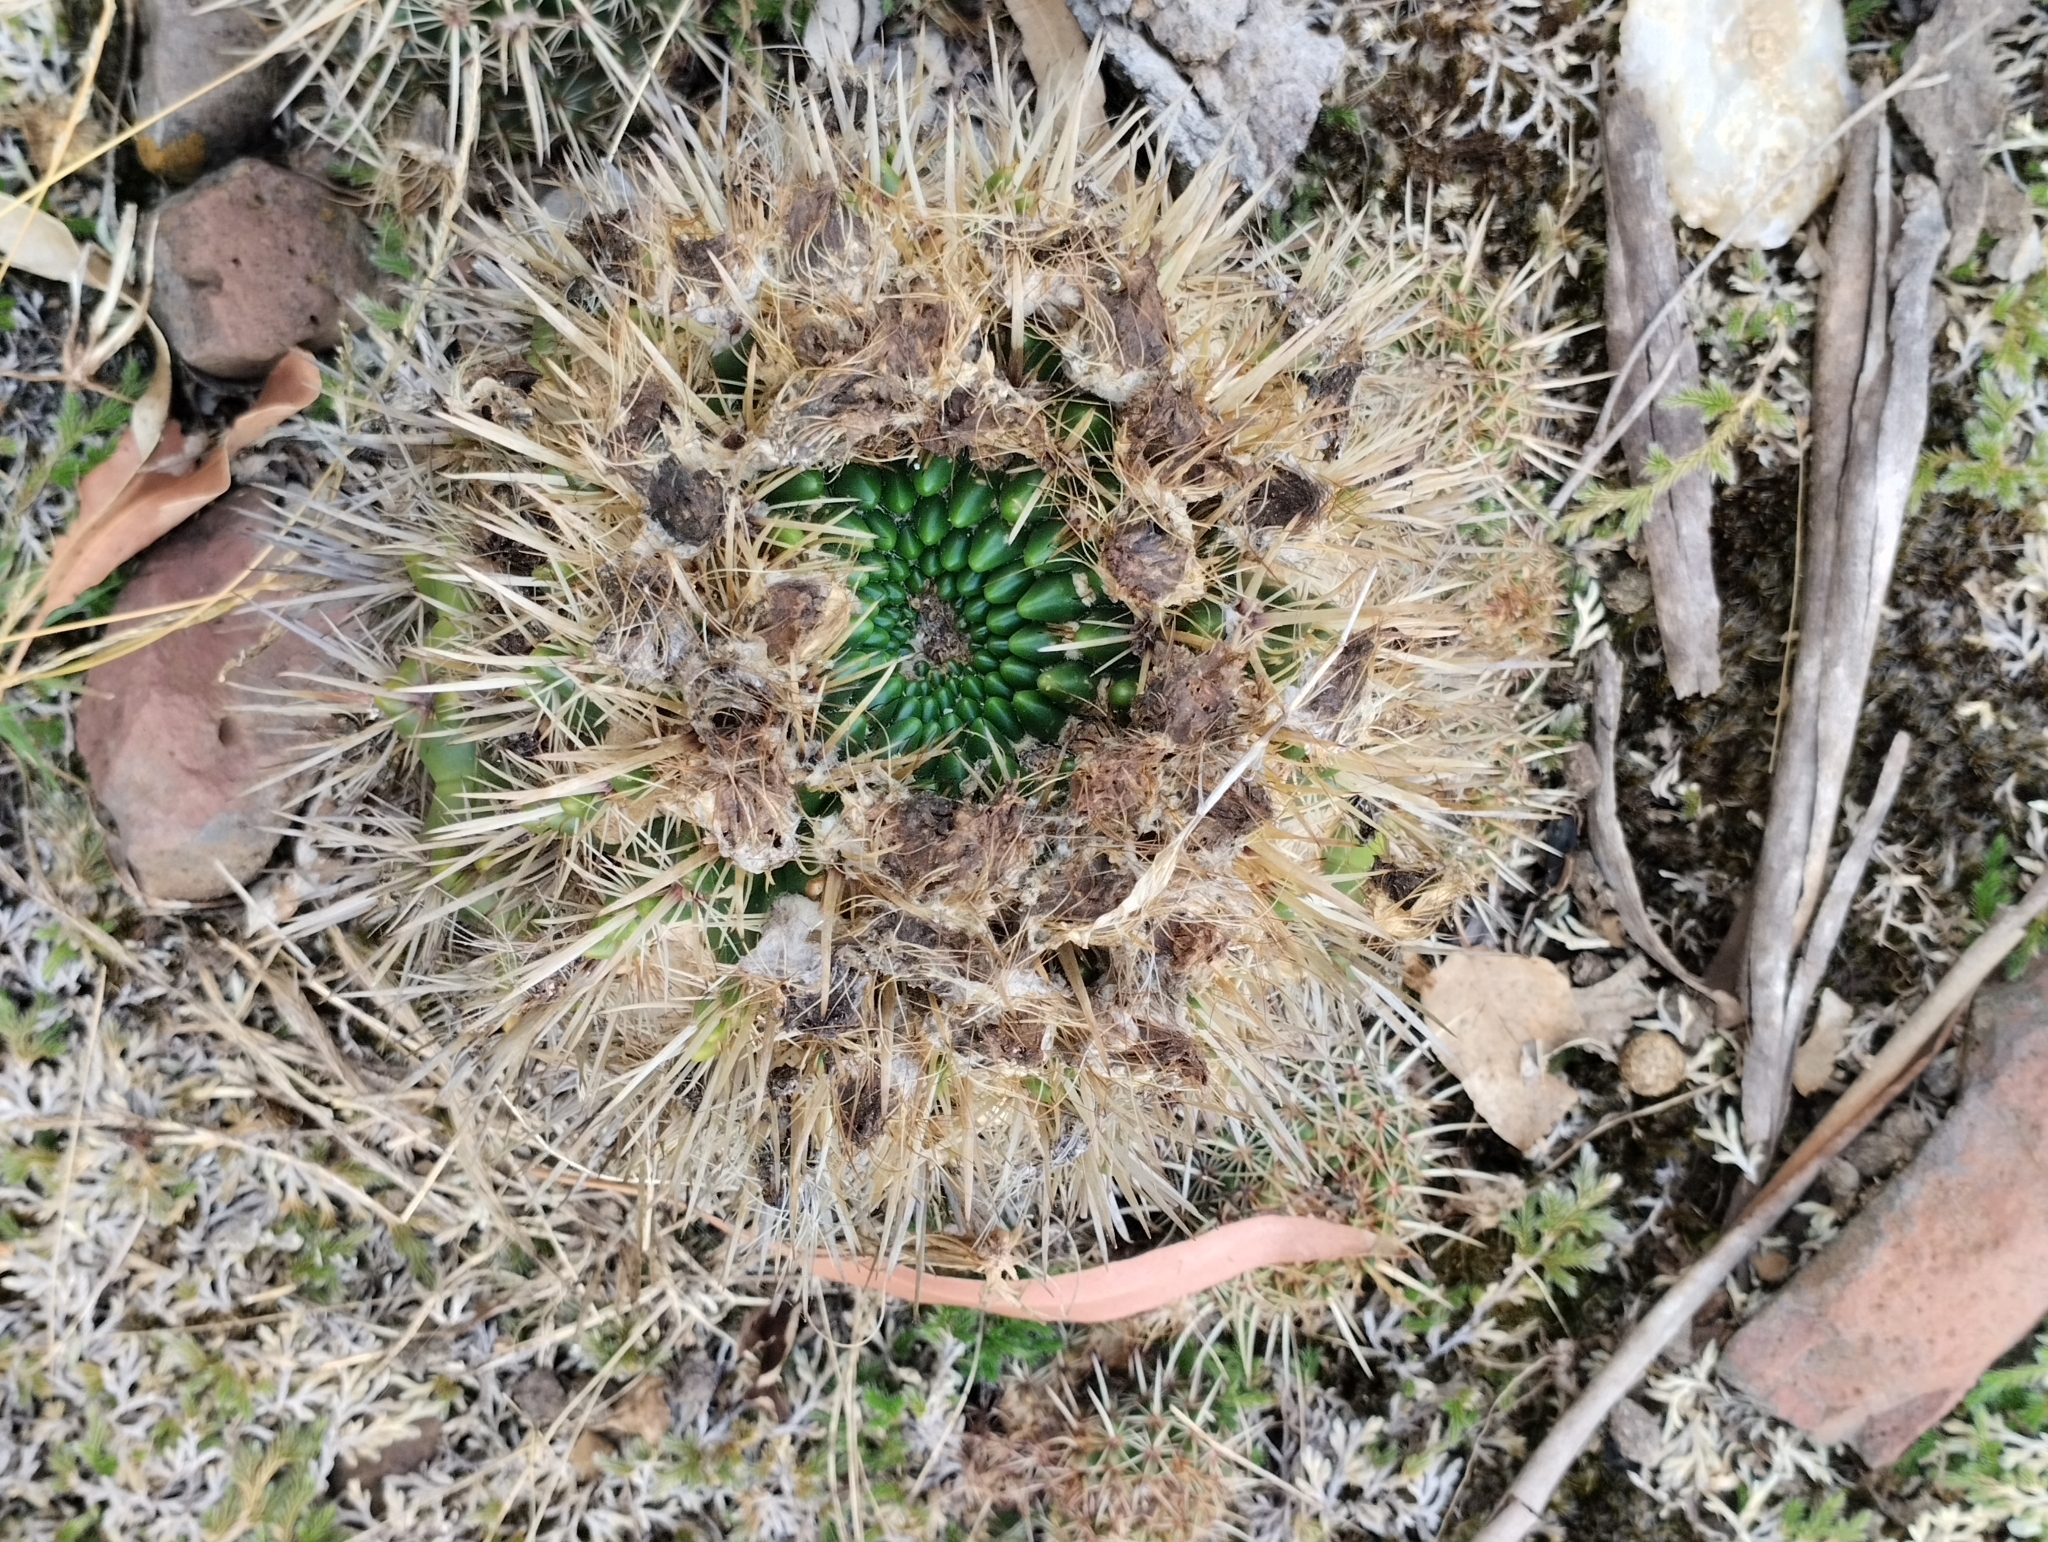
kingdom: Plantae
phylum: Tracheophyta
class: Magnoliopsida
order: Caryophyllales
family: Cactaceae
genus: Parodia
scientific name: Parodia mammulosa
